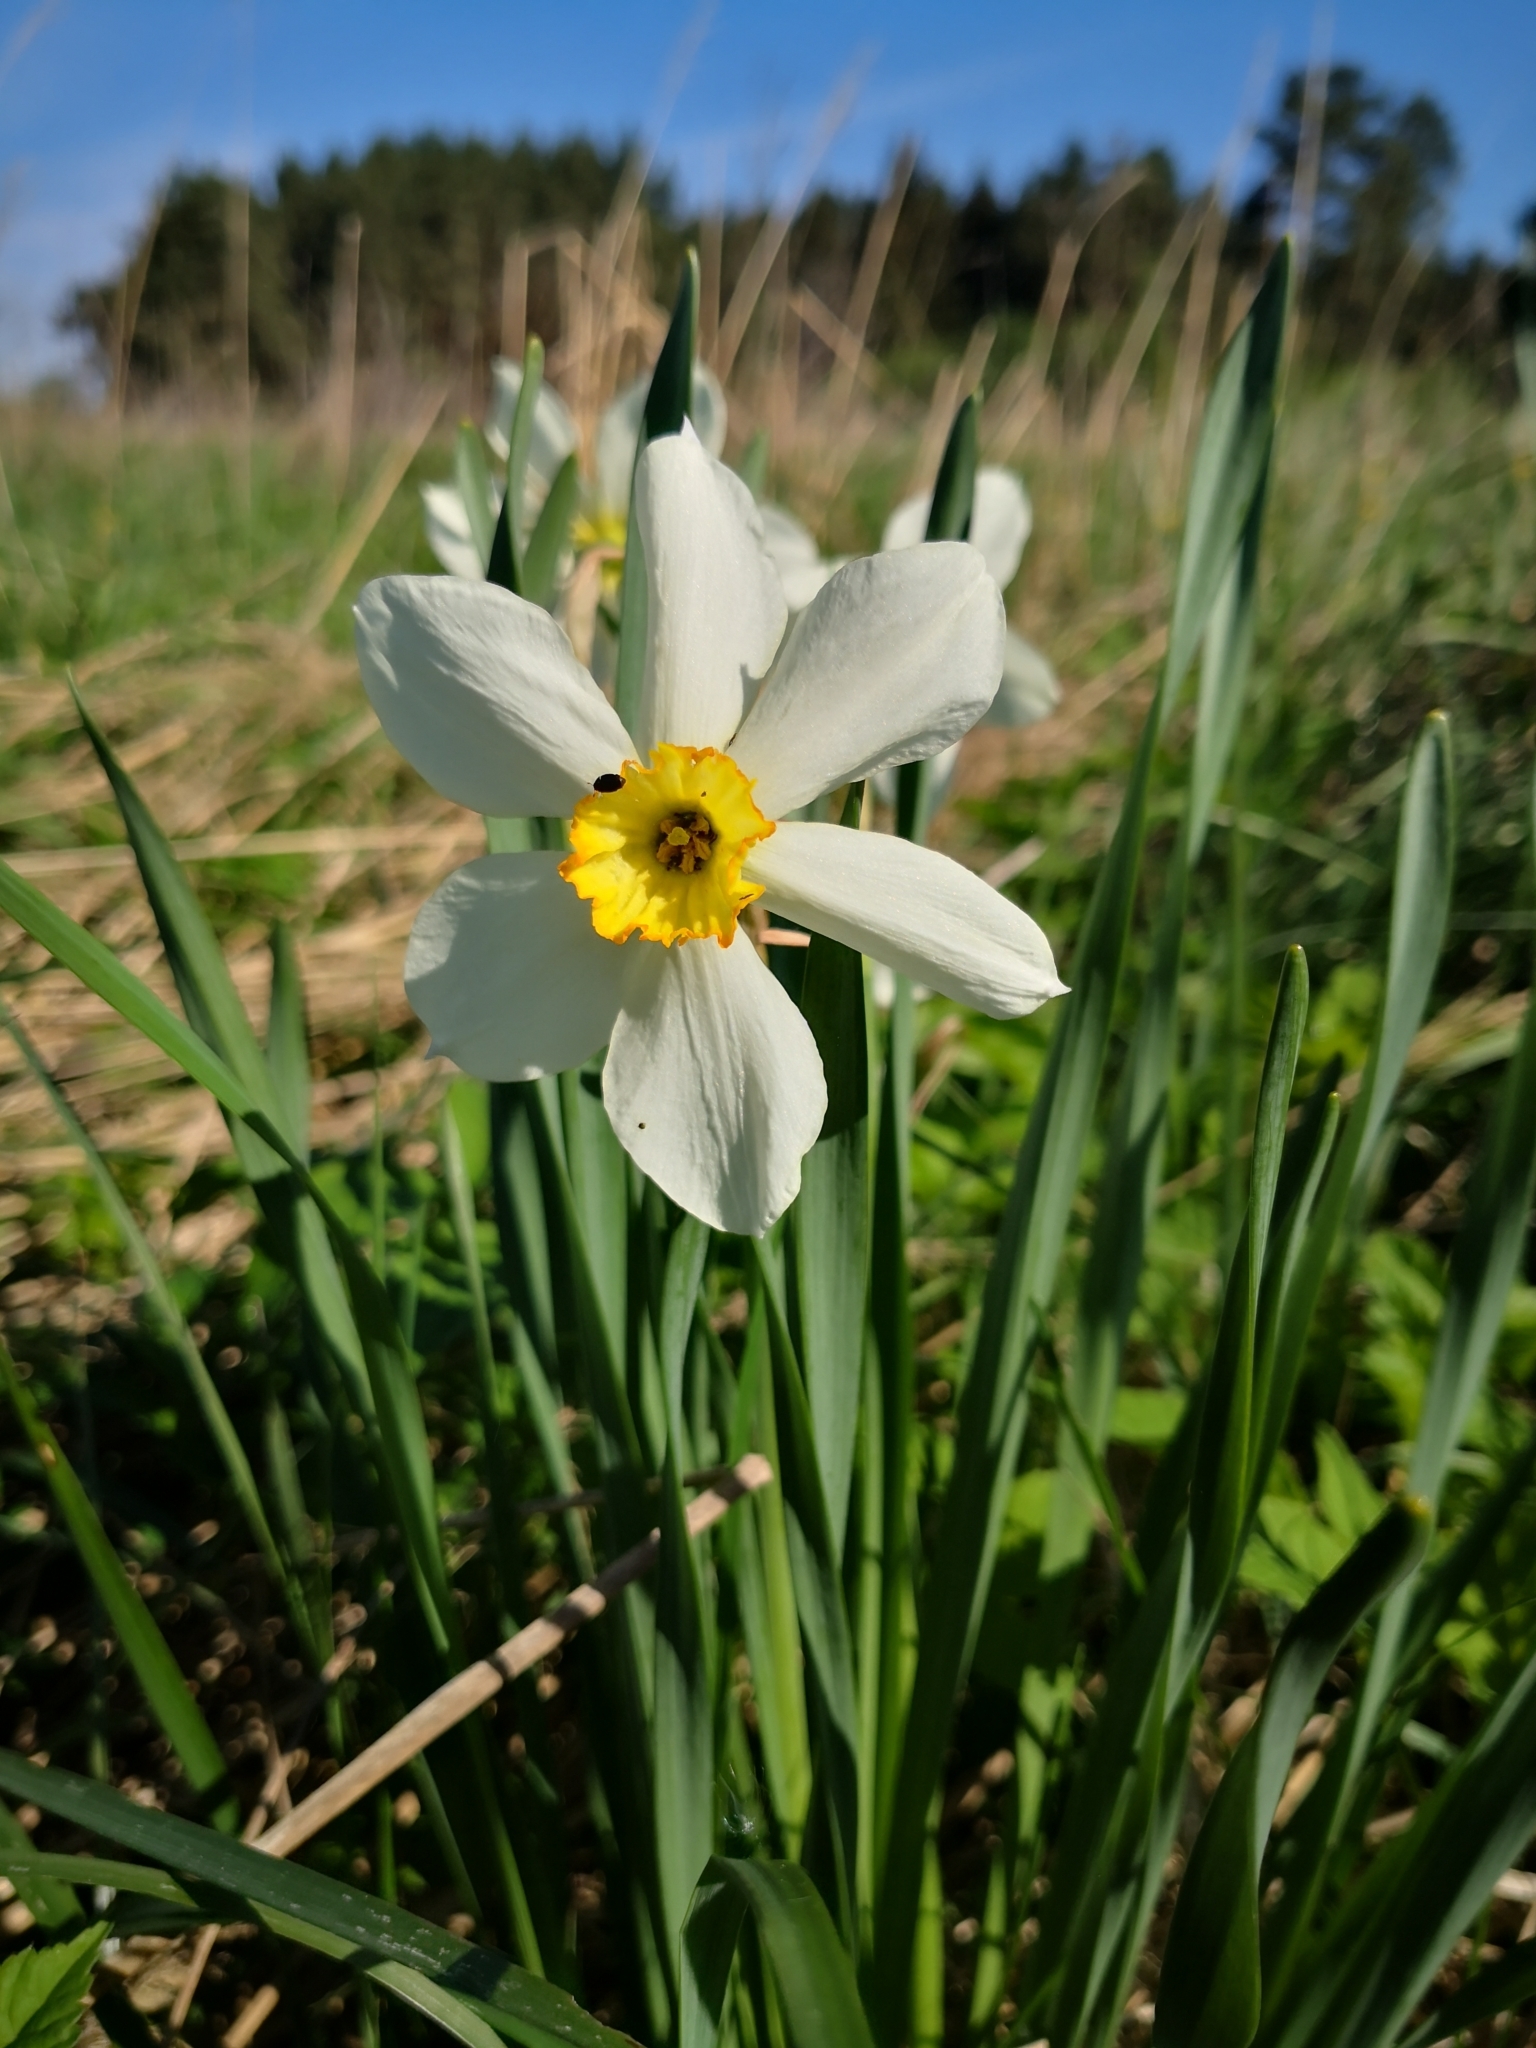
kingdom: Plantae
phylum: Tracheophyta
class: Liliopsida
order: Asparagales
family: Amaryllidaceae
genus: Narcissus
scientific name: Narcissus poeticus
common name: Pheasant's-eye daffodil
